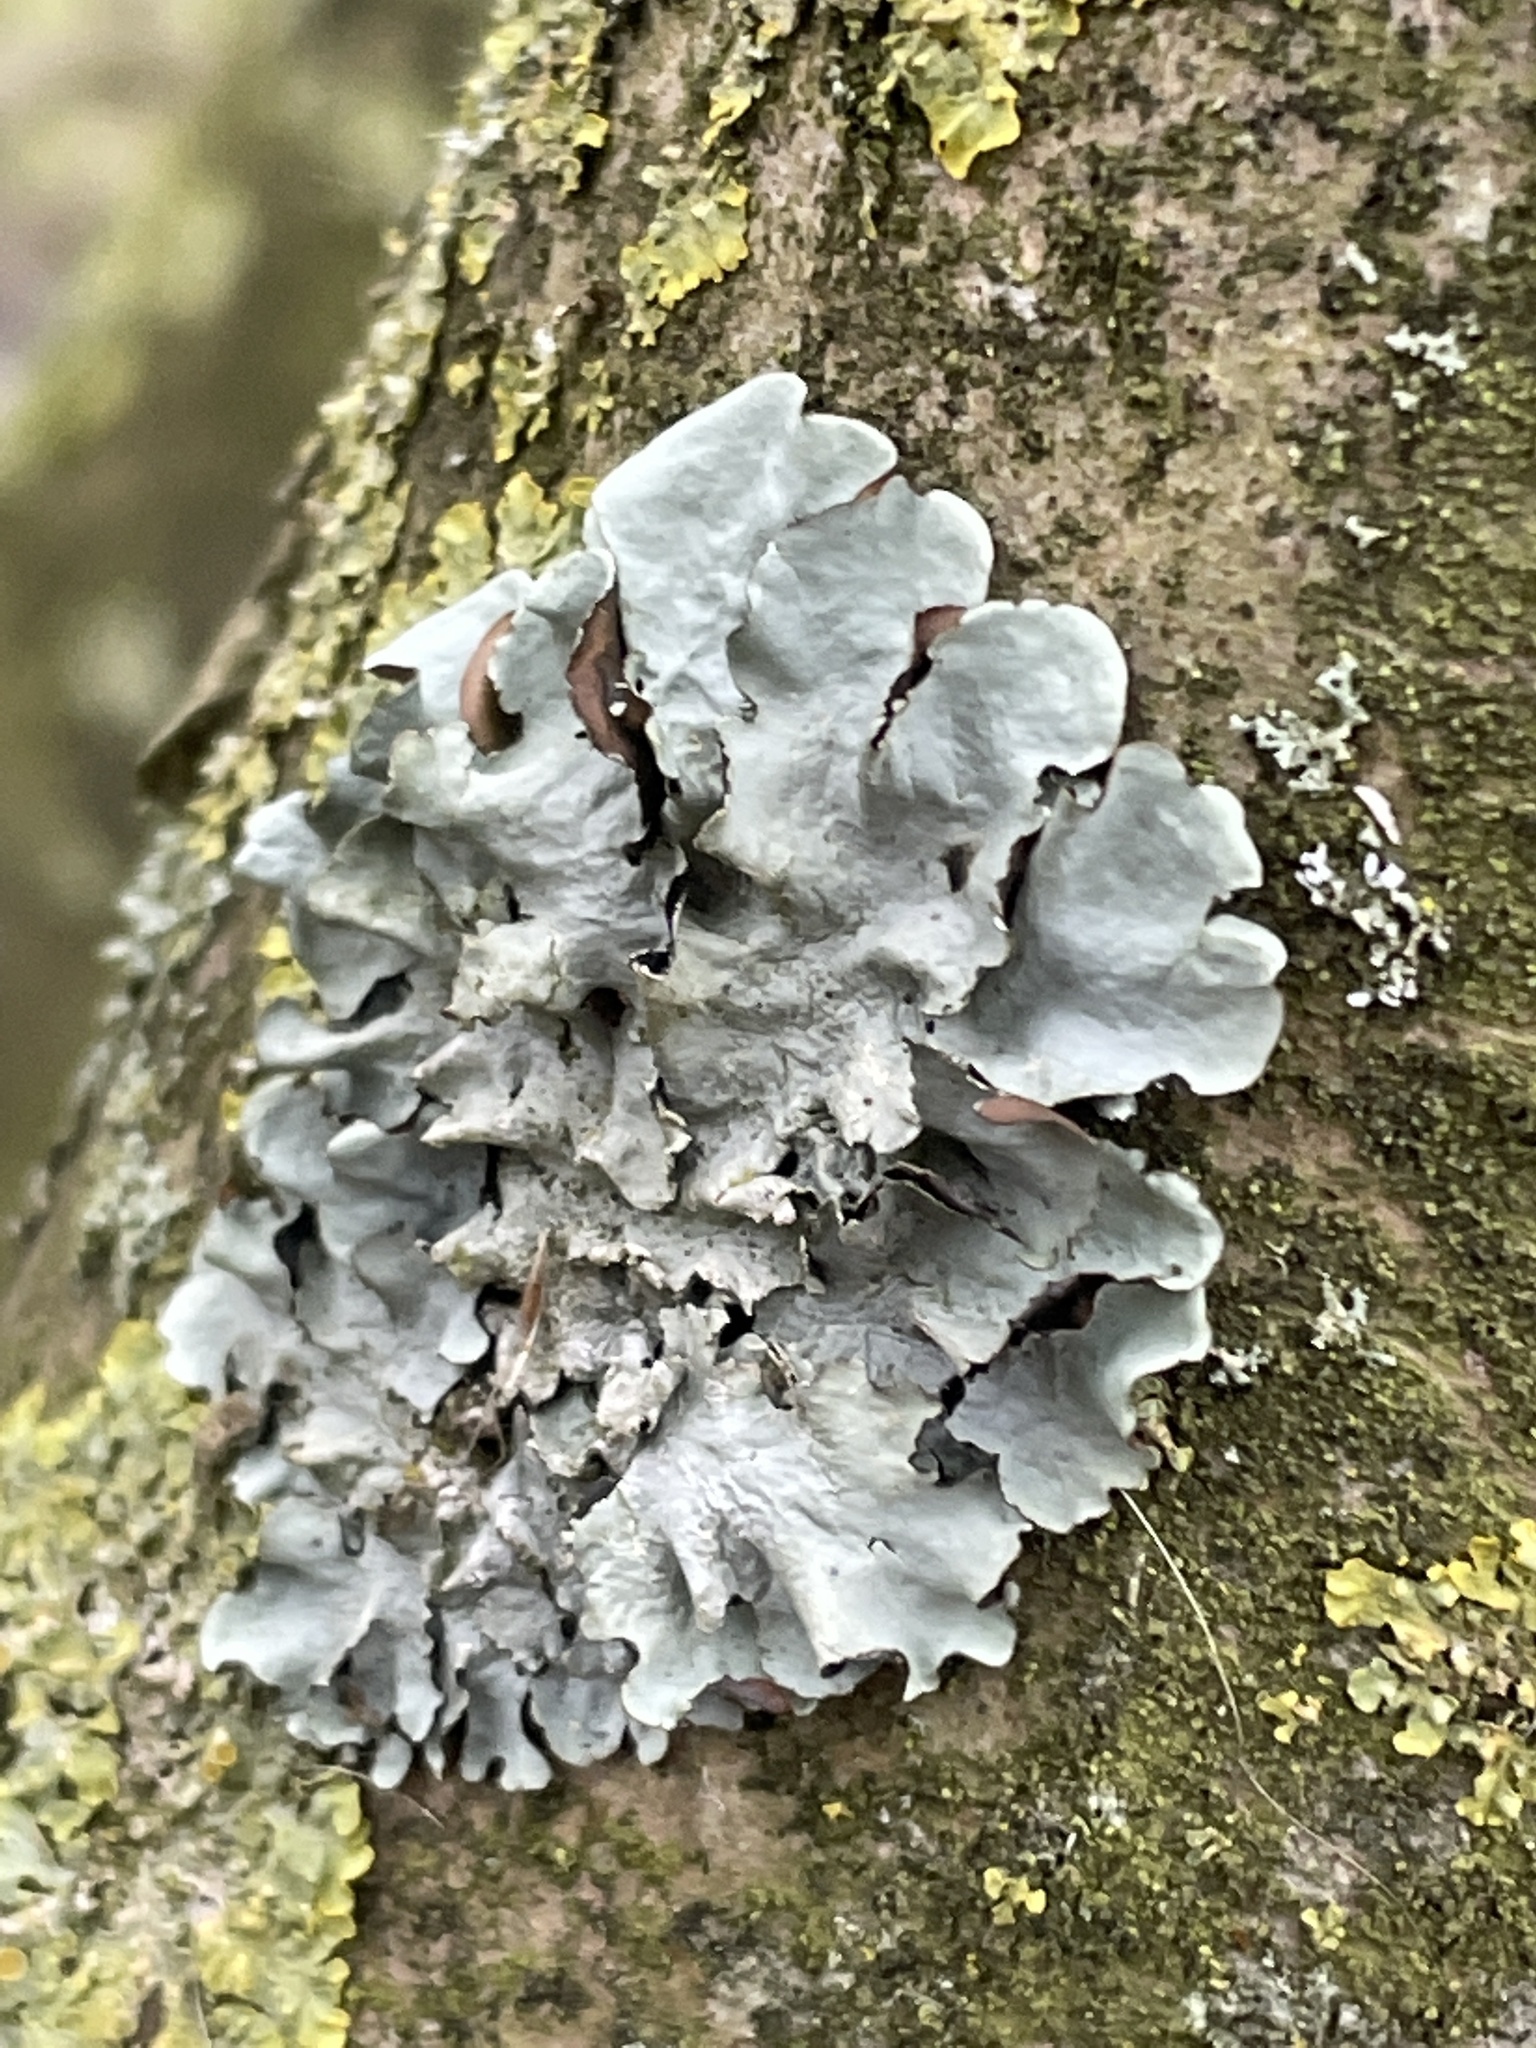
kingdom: Fungi
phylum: Ascomycota
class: Lecanoromycetes
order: Lecanorales
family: Parmeliaceae
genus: Parmotrema
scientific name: Parmotrema perlatum
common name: Black stone flower
